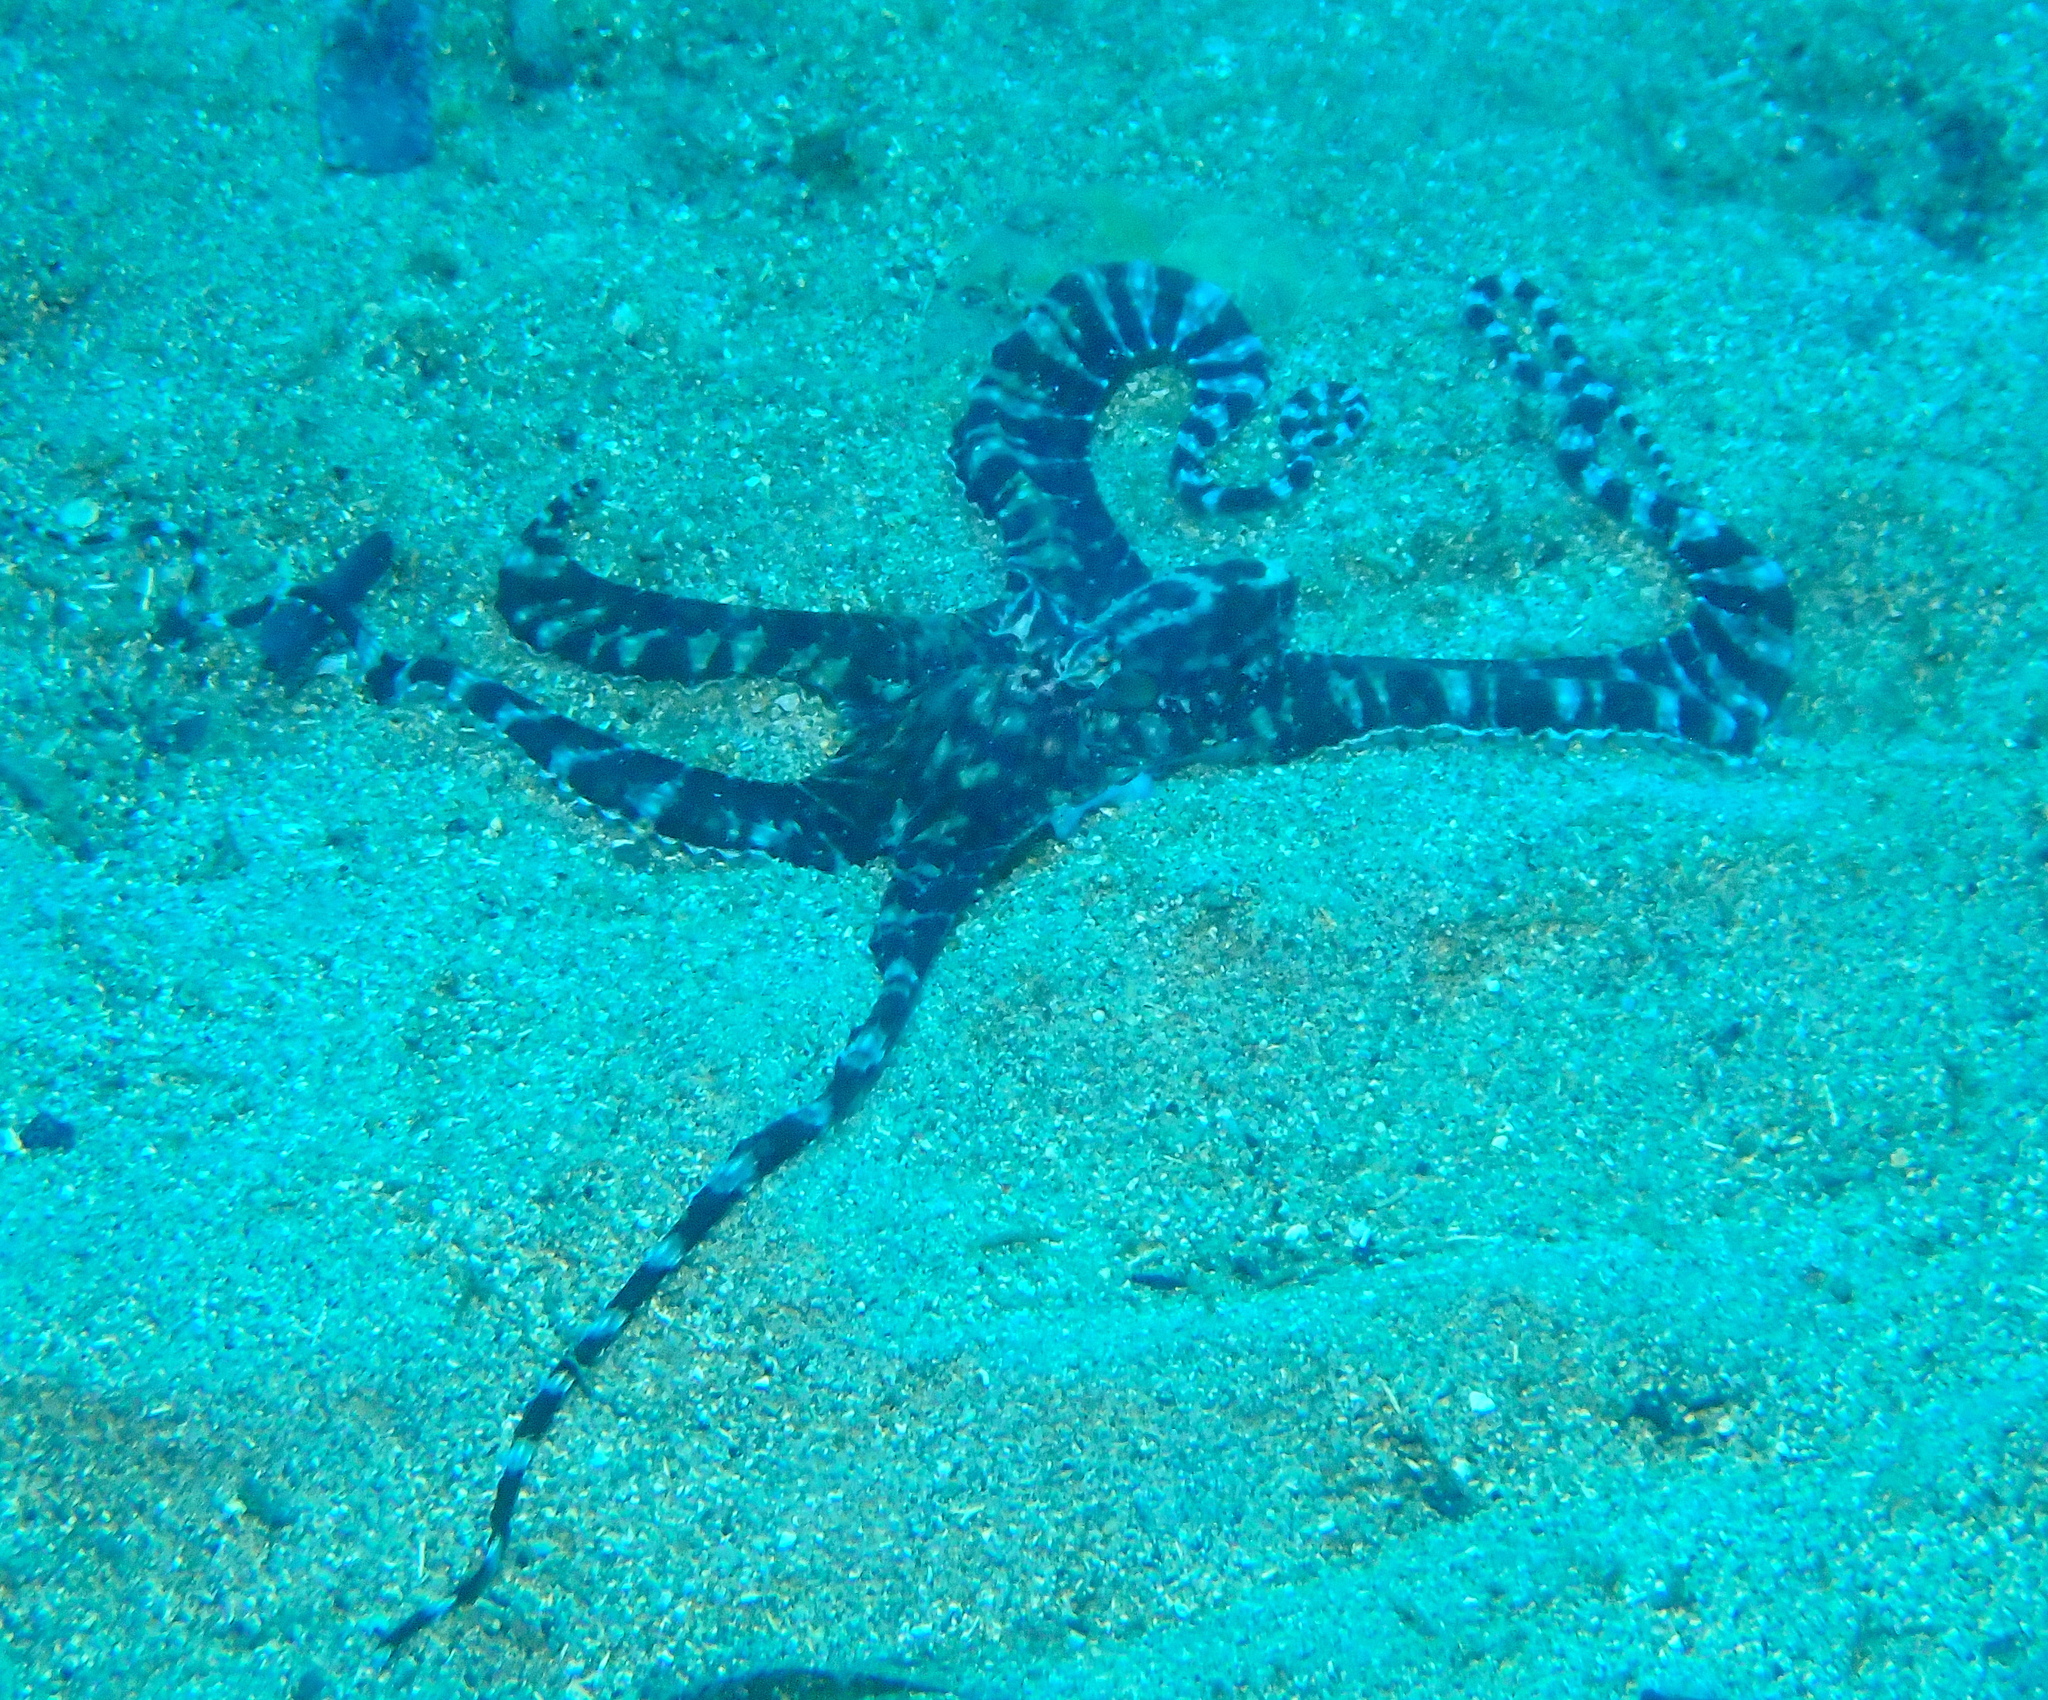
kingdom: Animalia
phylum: Mollusca
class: Cephalopoda
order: Octopoda
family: Octopodidae
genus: Thaumoctopus
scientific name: Thaumoctopus mimicus
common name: Mimic octopus
